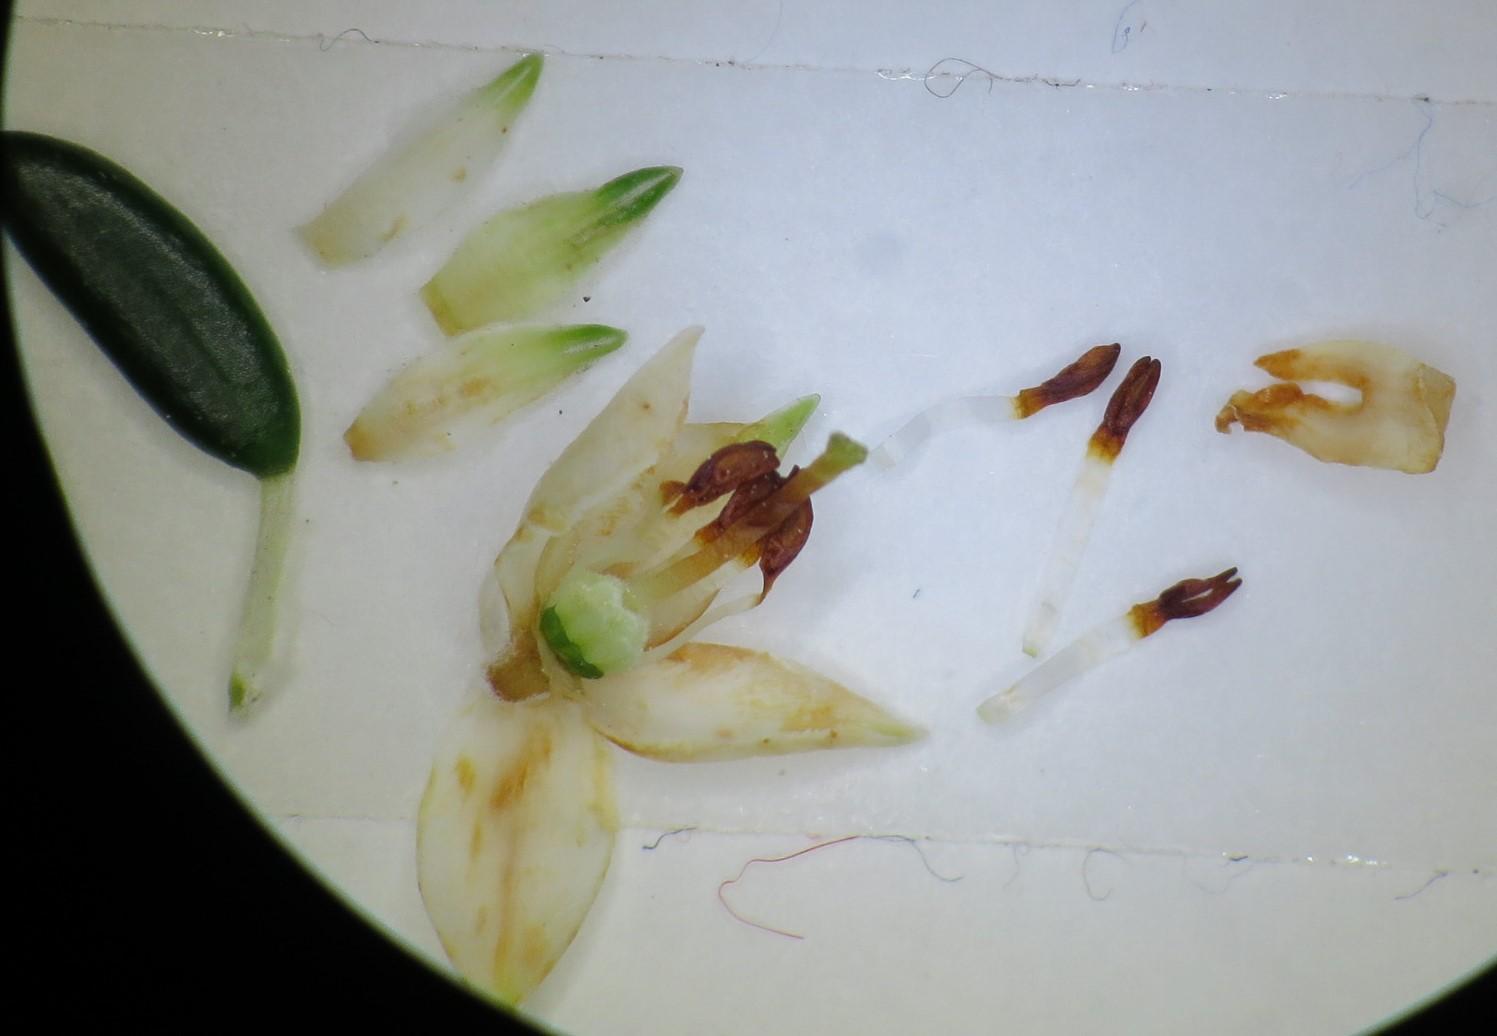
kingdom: Plantae
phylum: Tracheophyta
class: Magnoliopsida
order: Ericales
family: Ericaceae
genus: Erica
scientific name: Erica petiolaris
